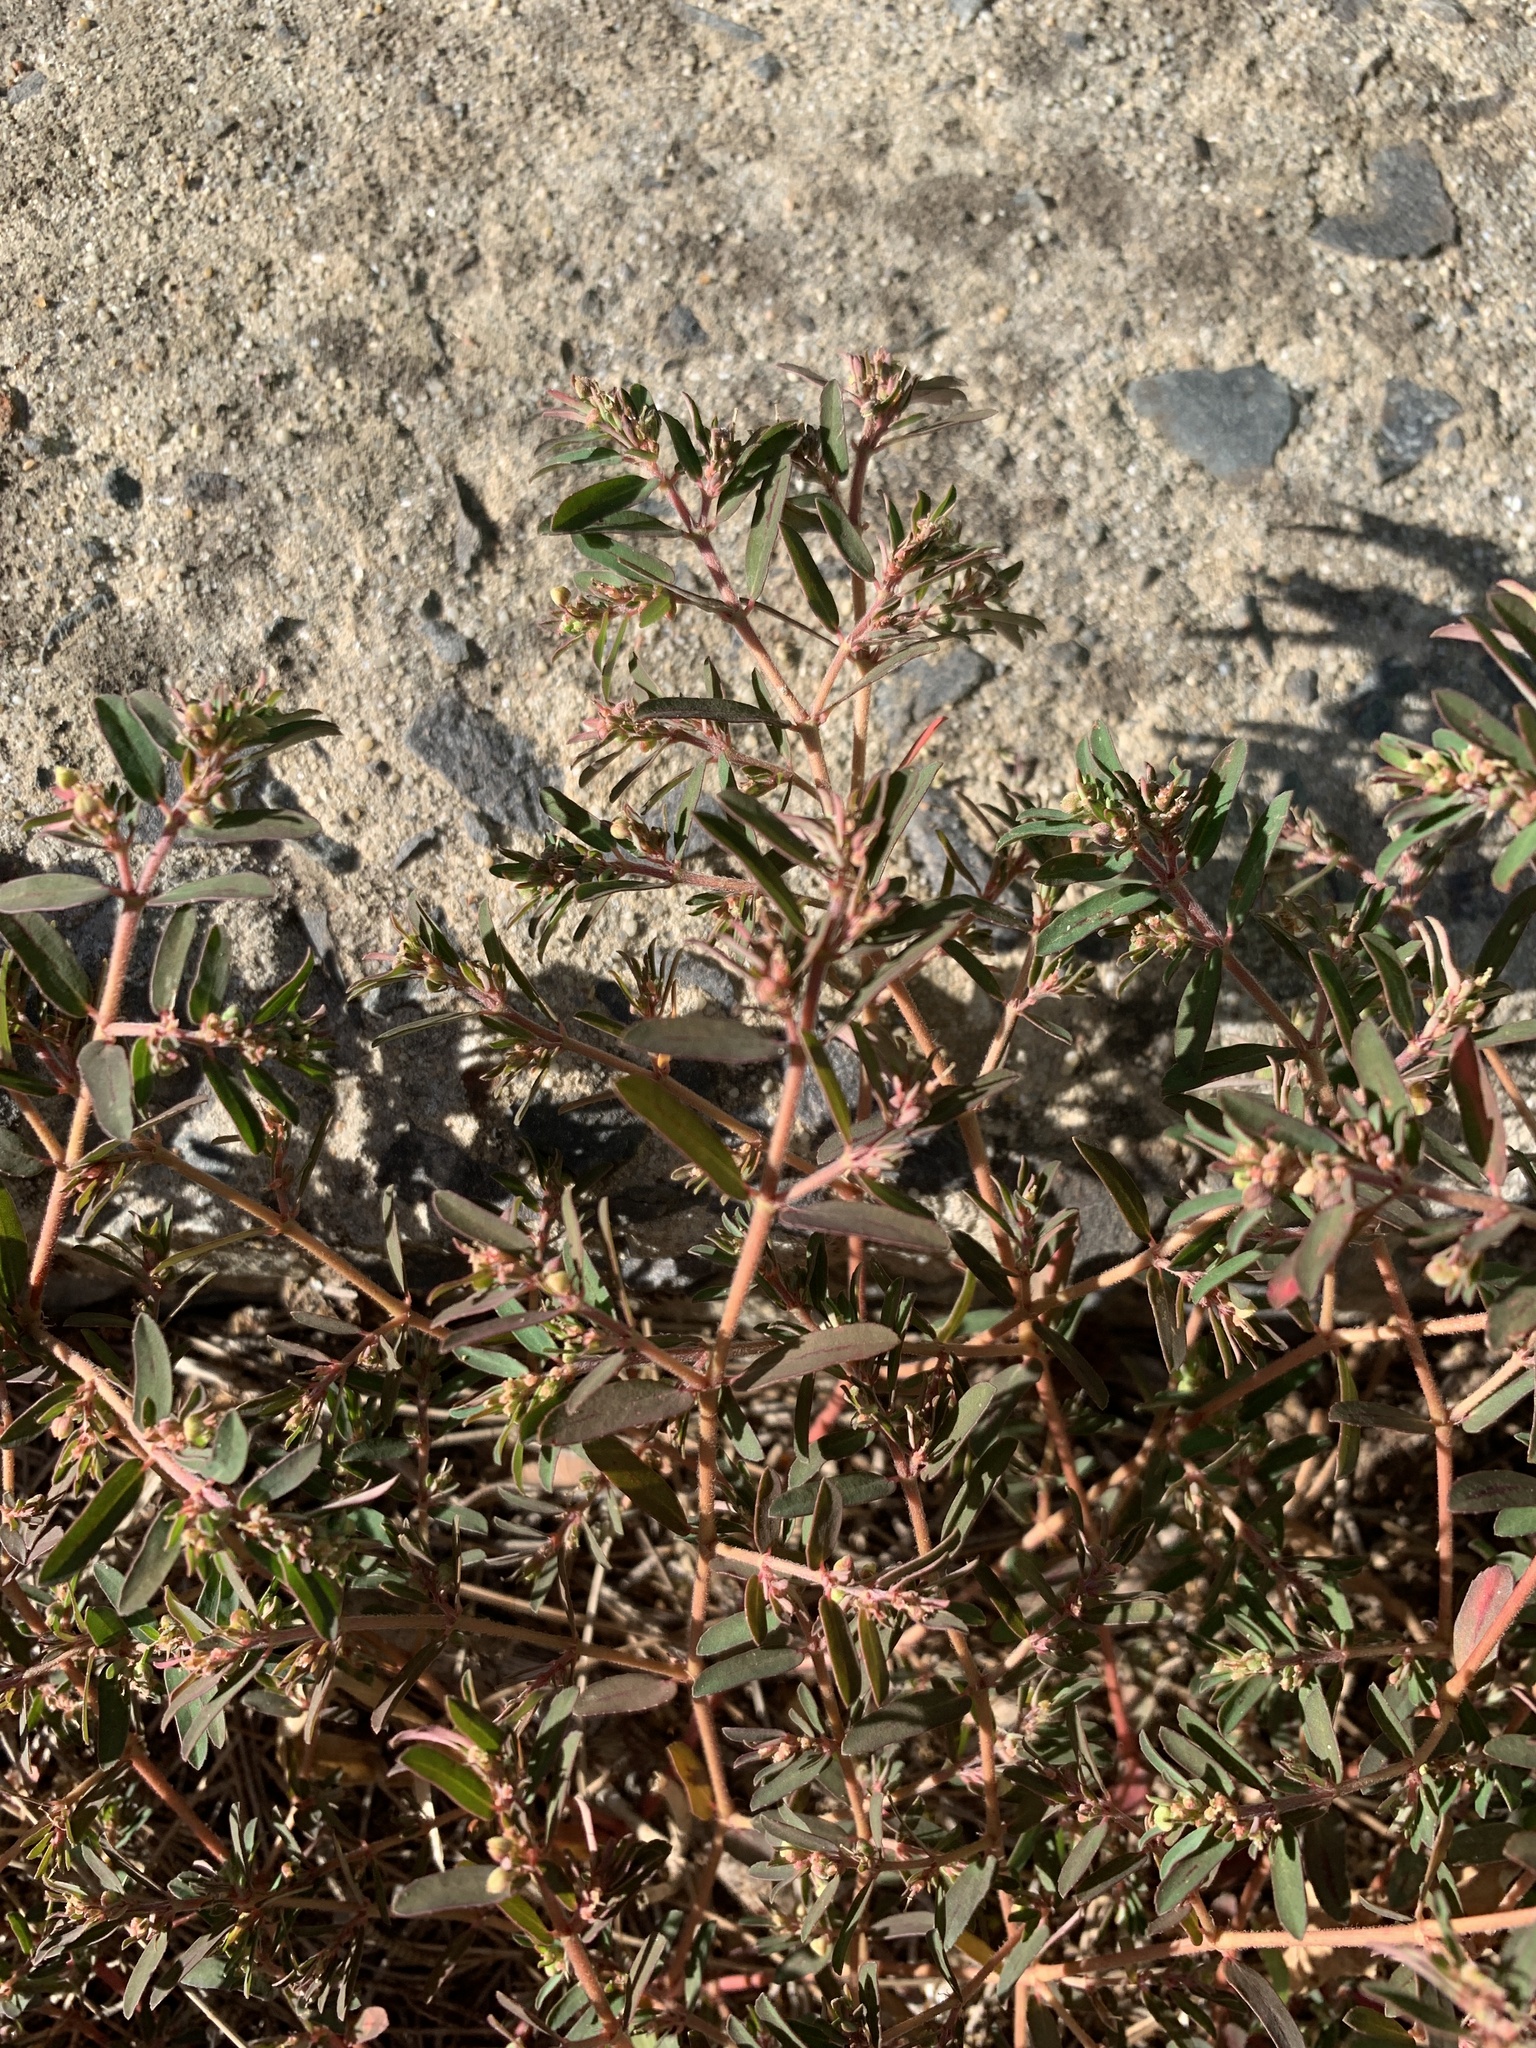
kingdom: Plantae
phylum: Tracheophyta
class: Magnoliopsida
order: Malpighiales
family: Euphorbiaceae
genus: Euphorbia
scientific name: Euphorbia maculata
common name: Spotted spurge
